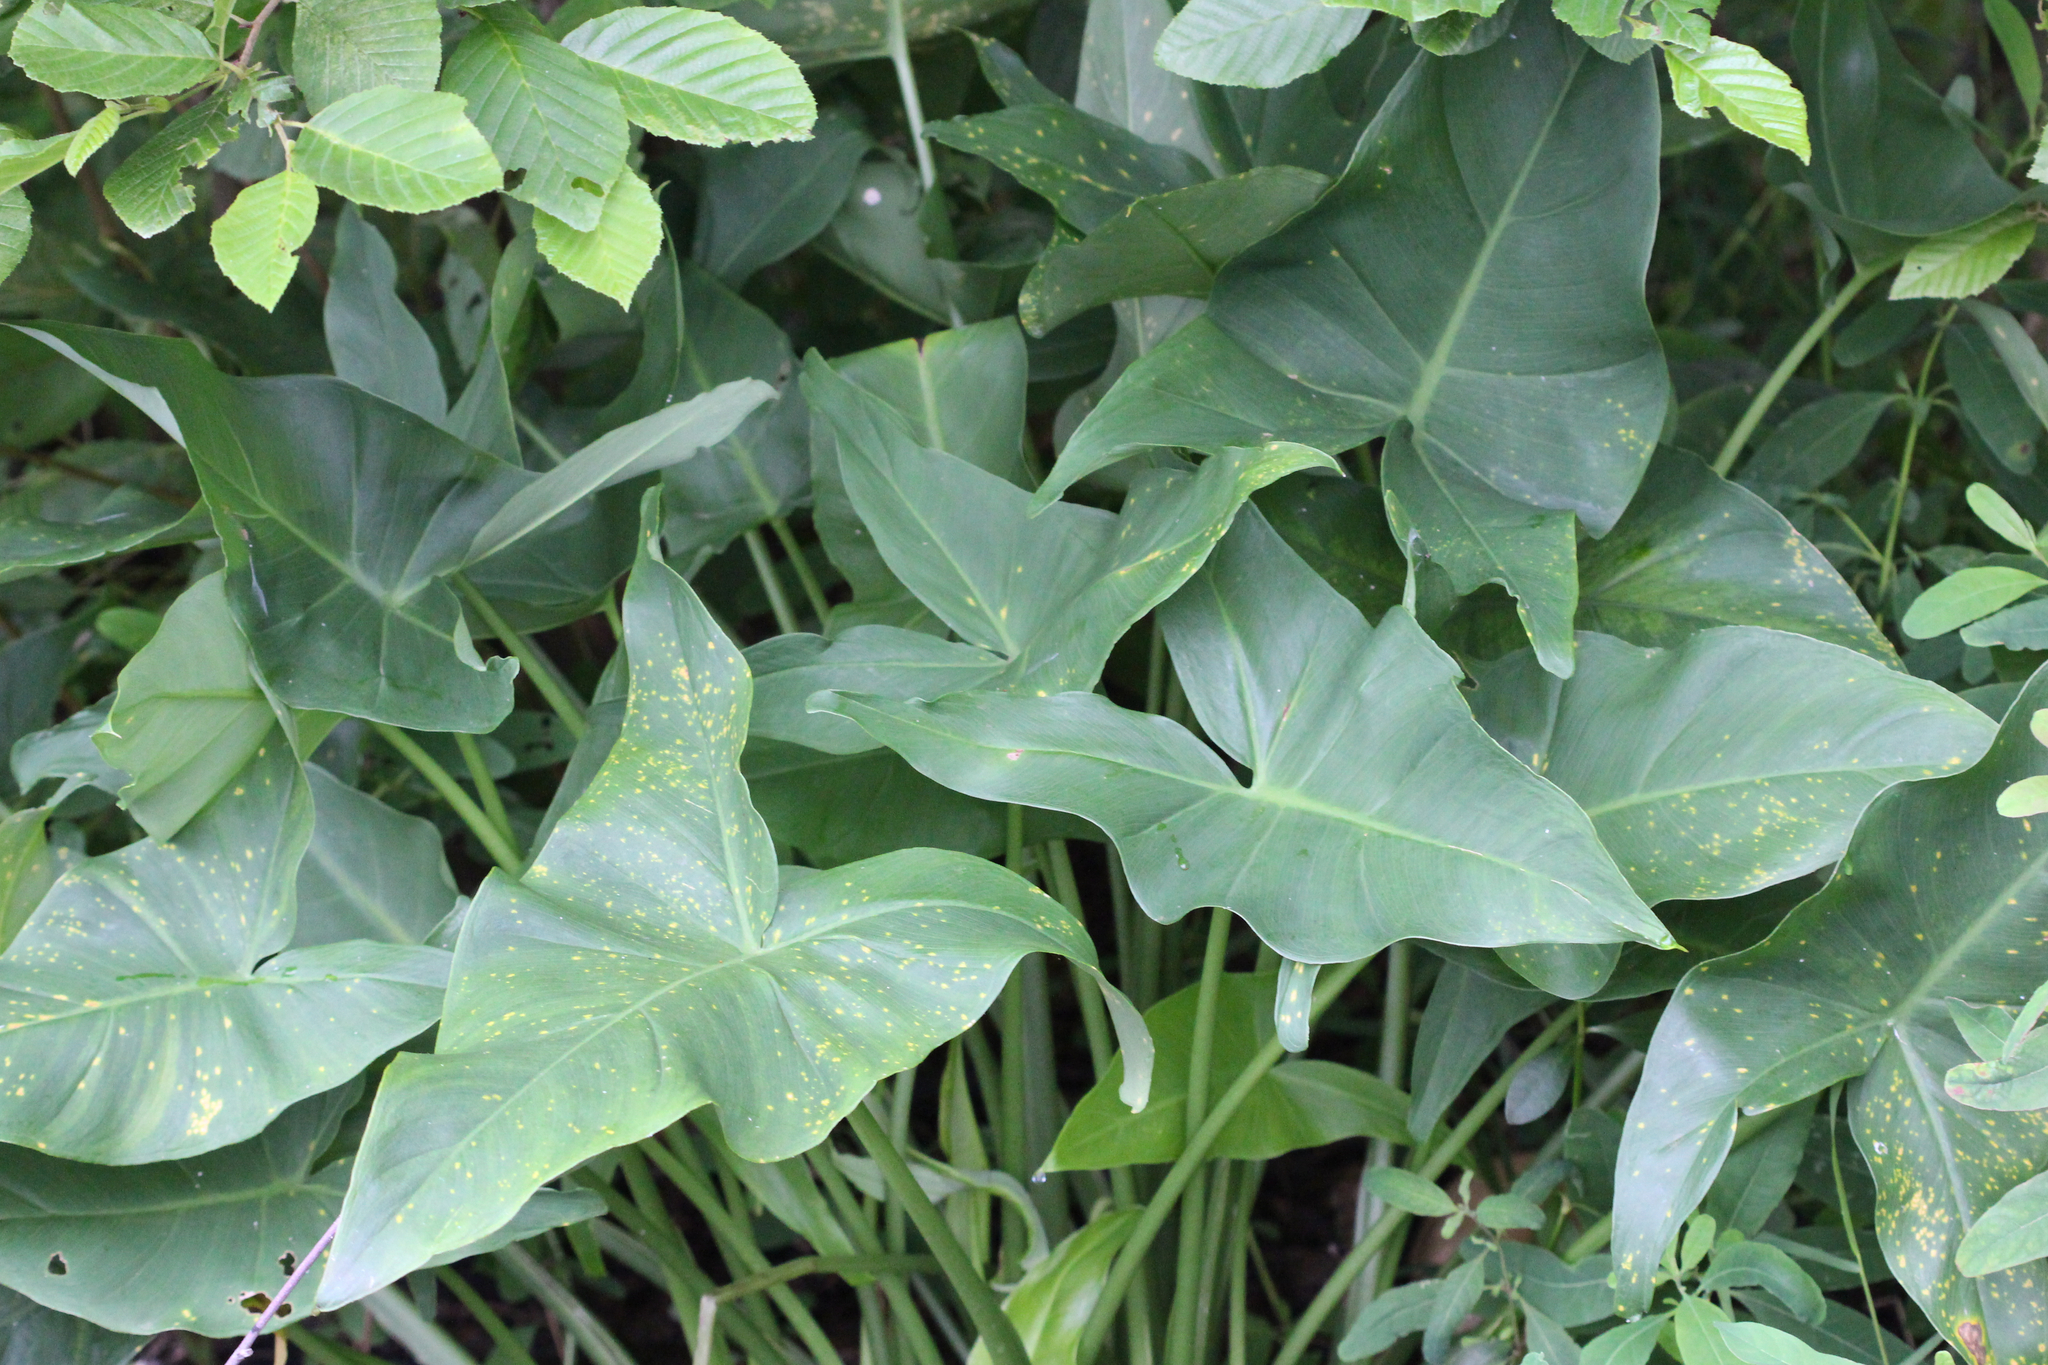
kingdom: Plantae
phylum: Tracheophyta
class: Liliopsida
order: Alismatales
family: Araceae
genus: Peltandra
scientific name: Peltandra virginica
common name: Arrow arum
